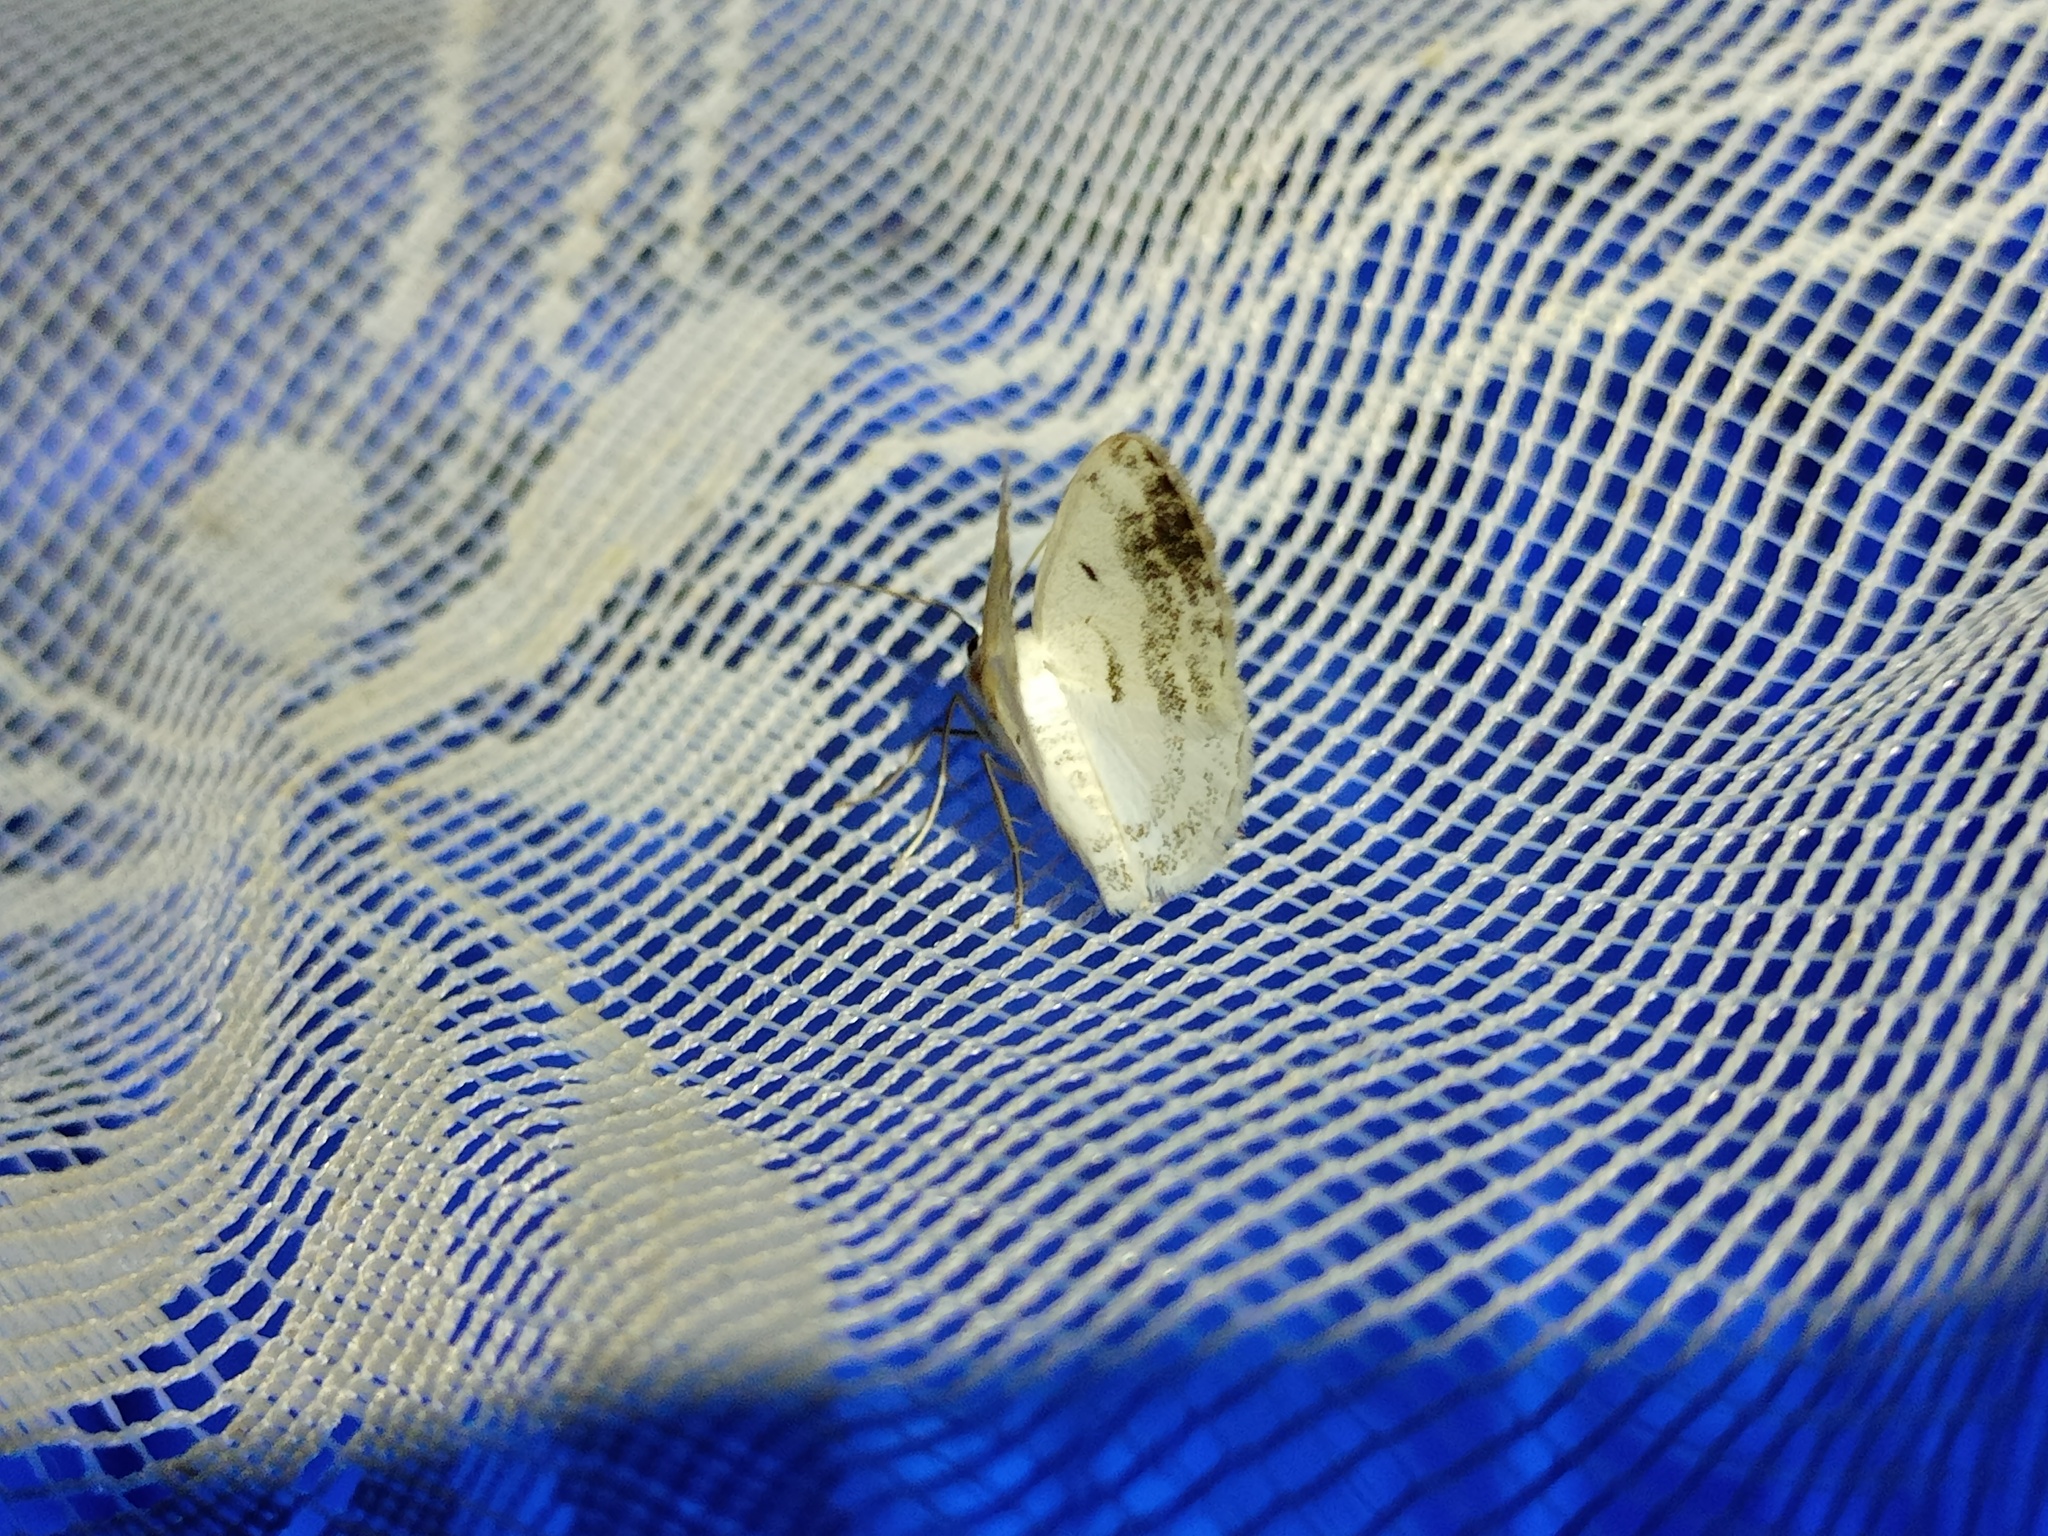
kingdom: Animalia
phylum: Arthropoda
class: Insecta
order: Lepidoptera
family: Geometridae
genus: Lomographa
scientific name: Lomographa temerata
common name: Clouded silver
